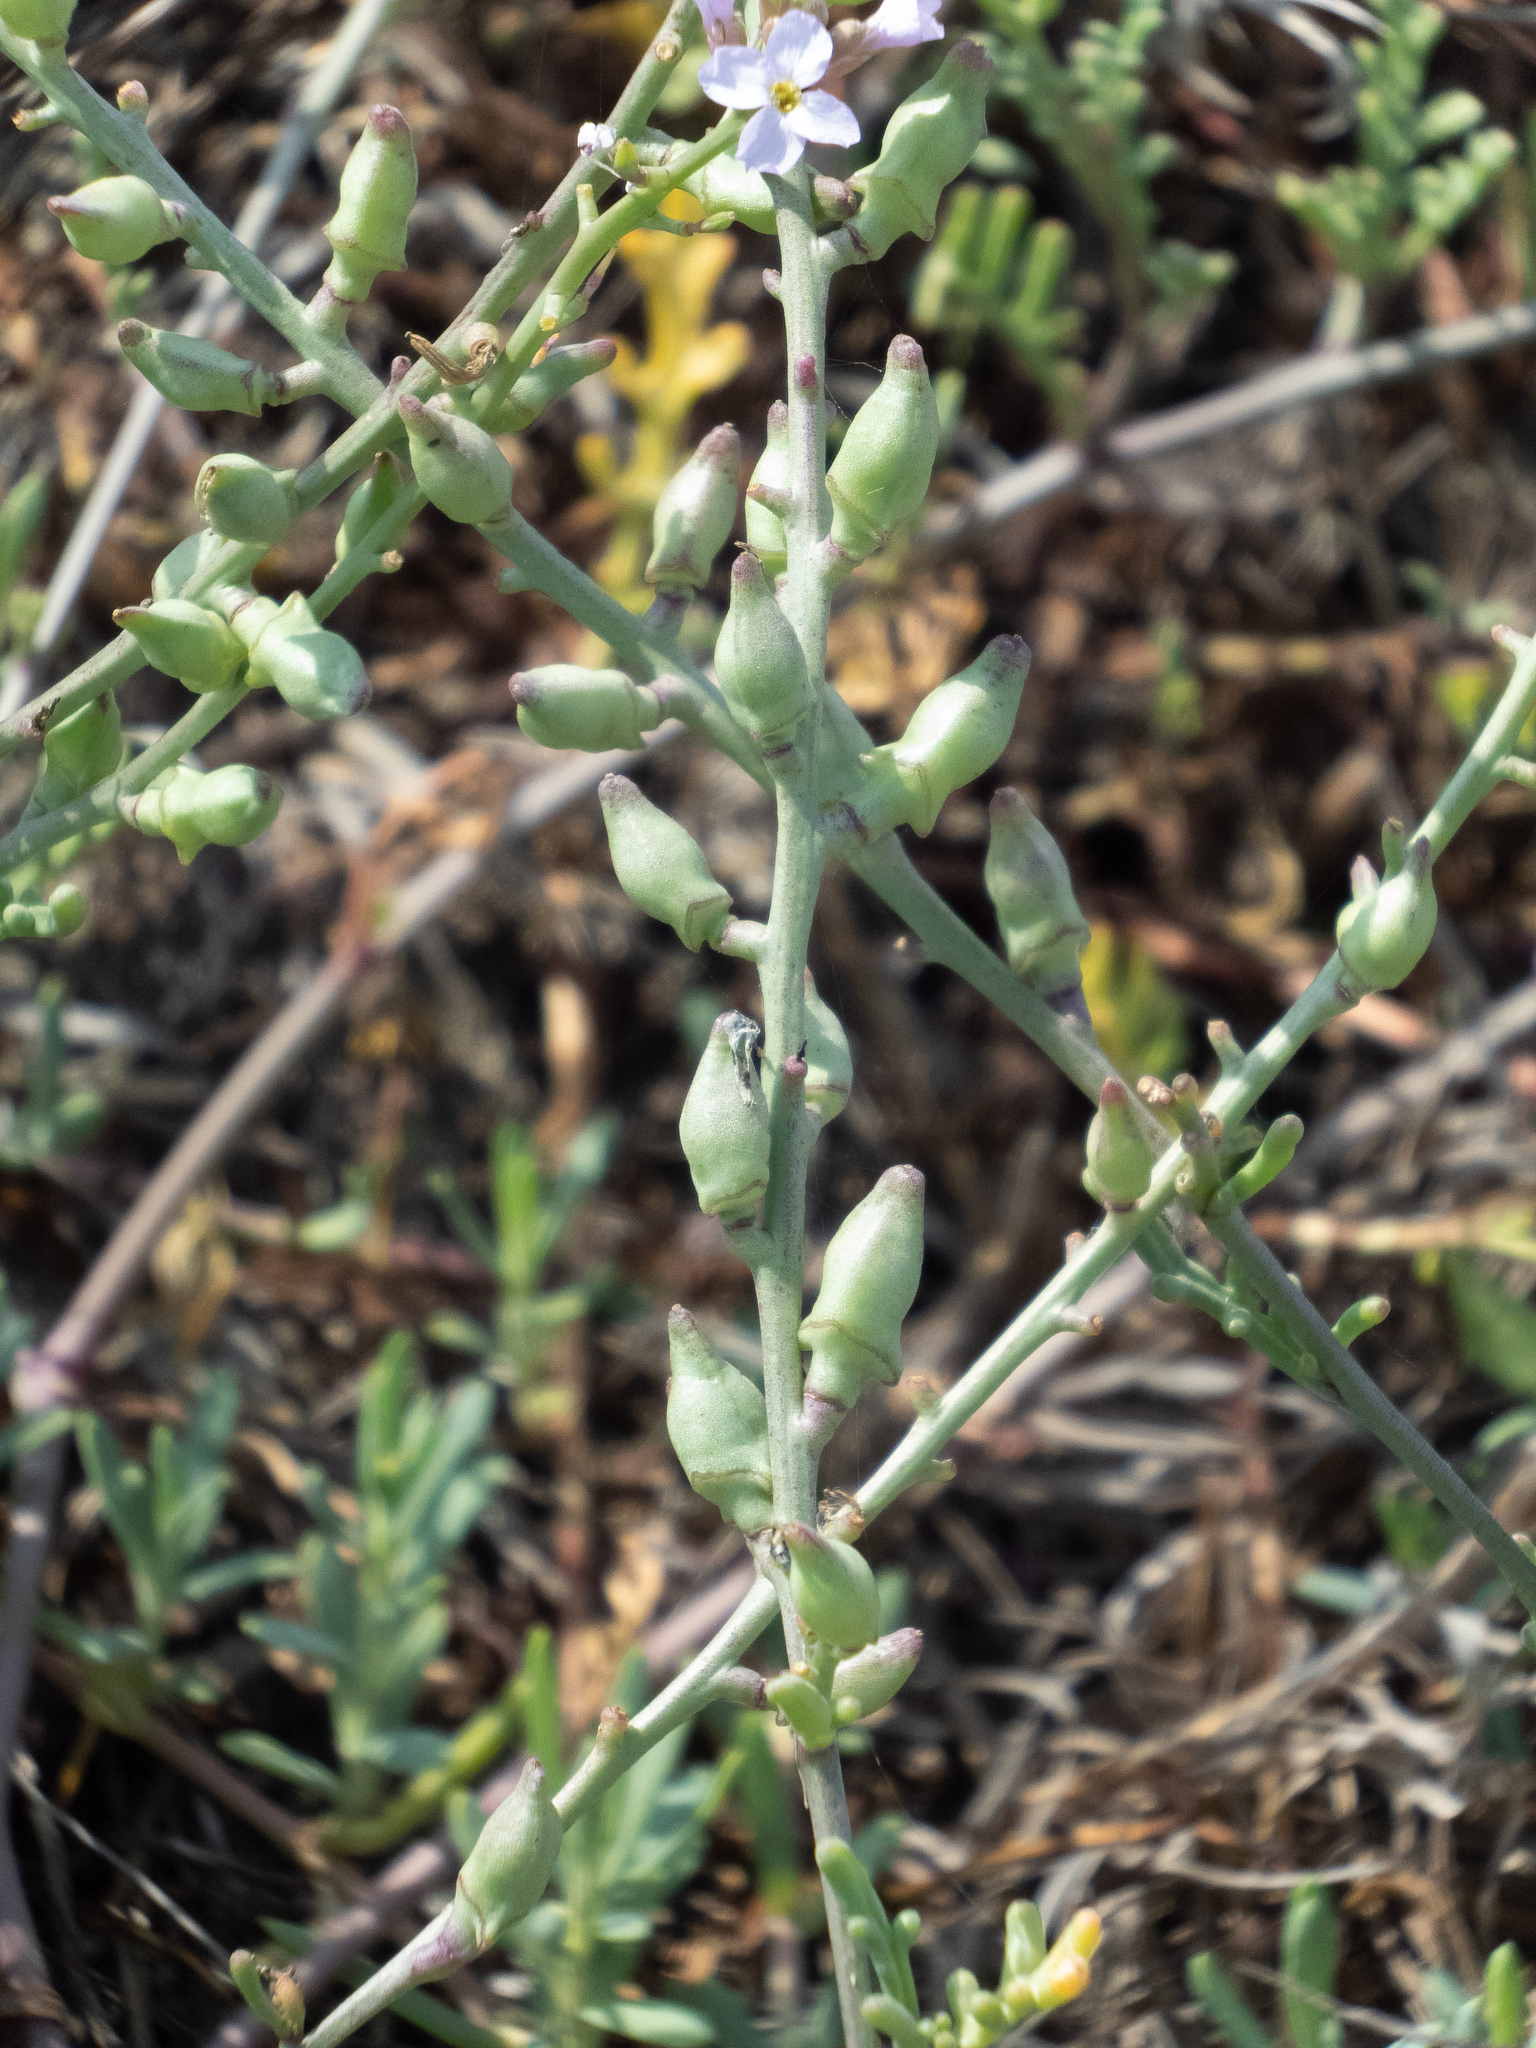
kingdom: Plantae
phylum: Tracheophyta
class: Magnoliopsida
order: Brassicales
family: Brassicaceae
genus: Cakile
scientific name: Cakile maritima
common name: Sea rocket
